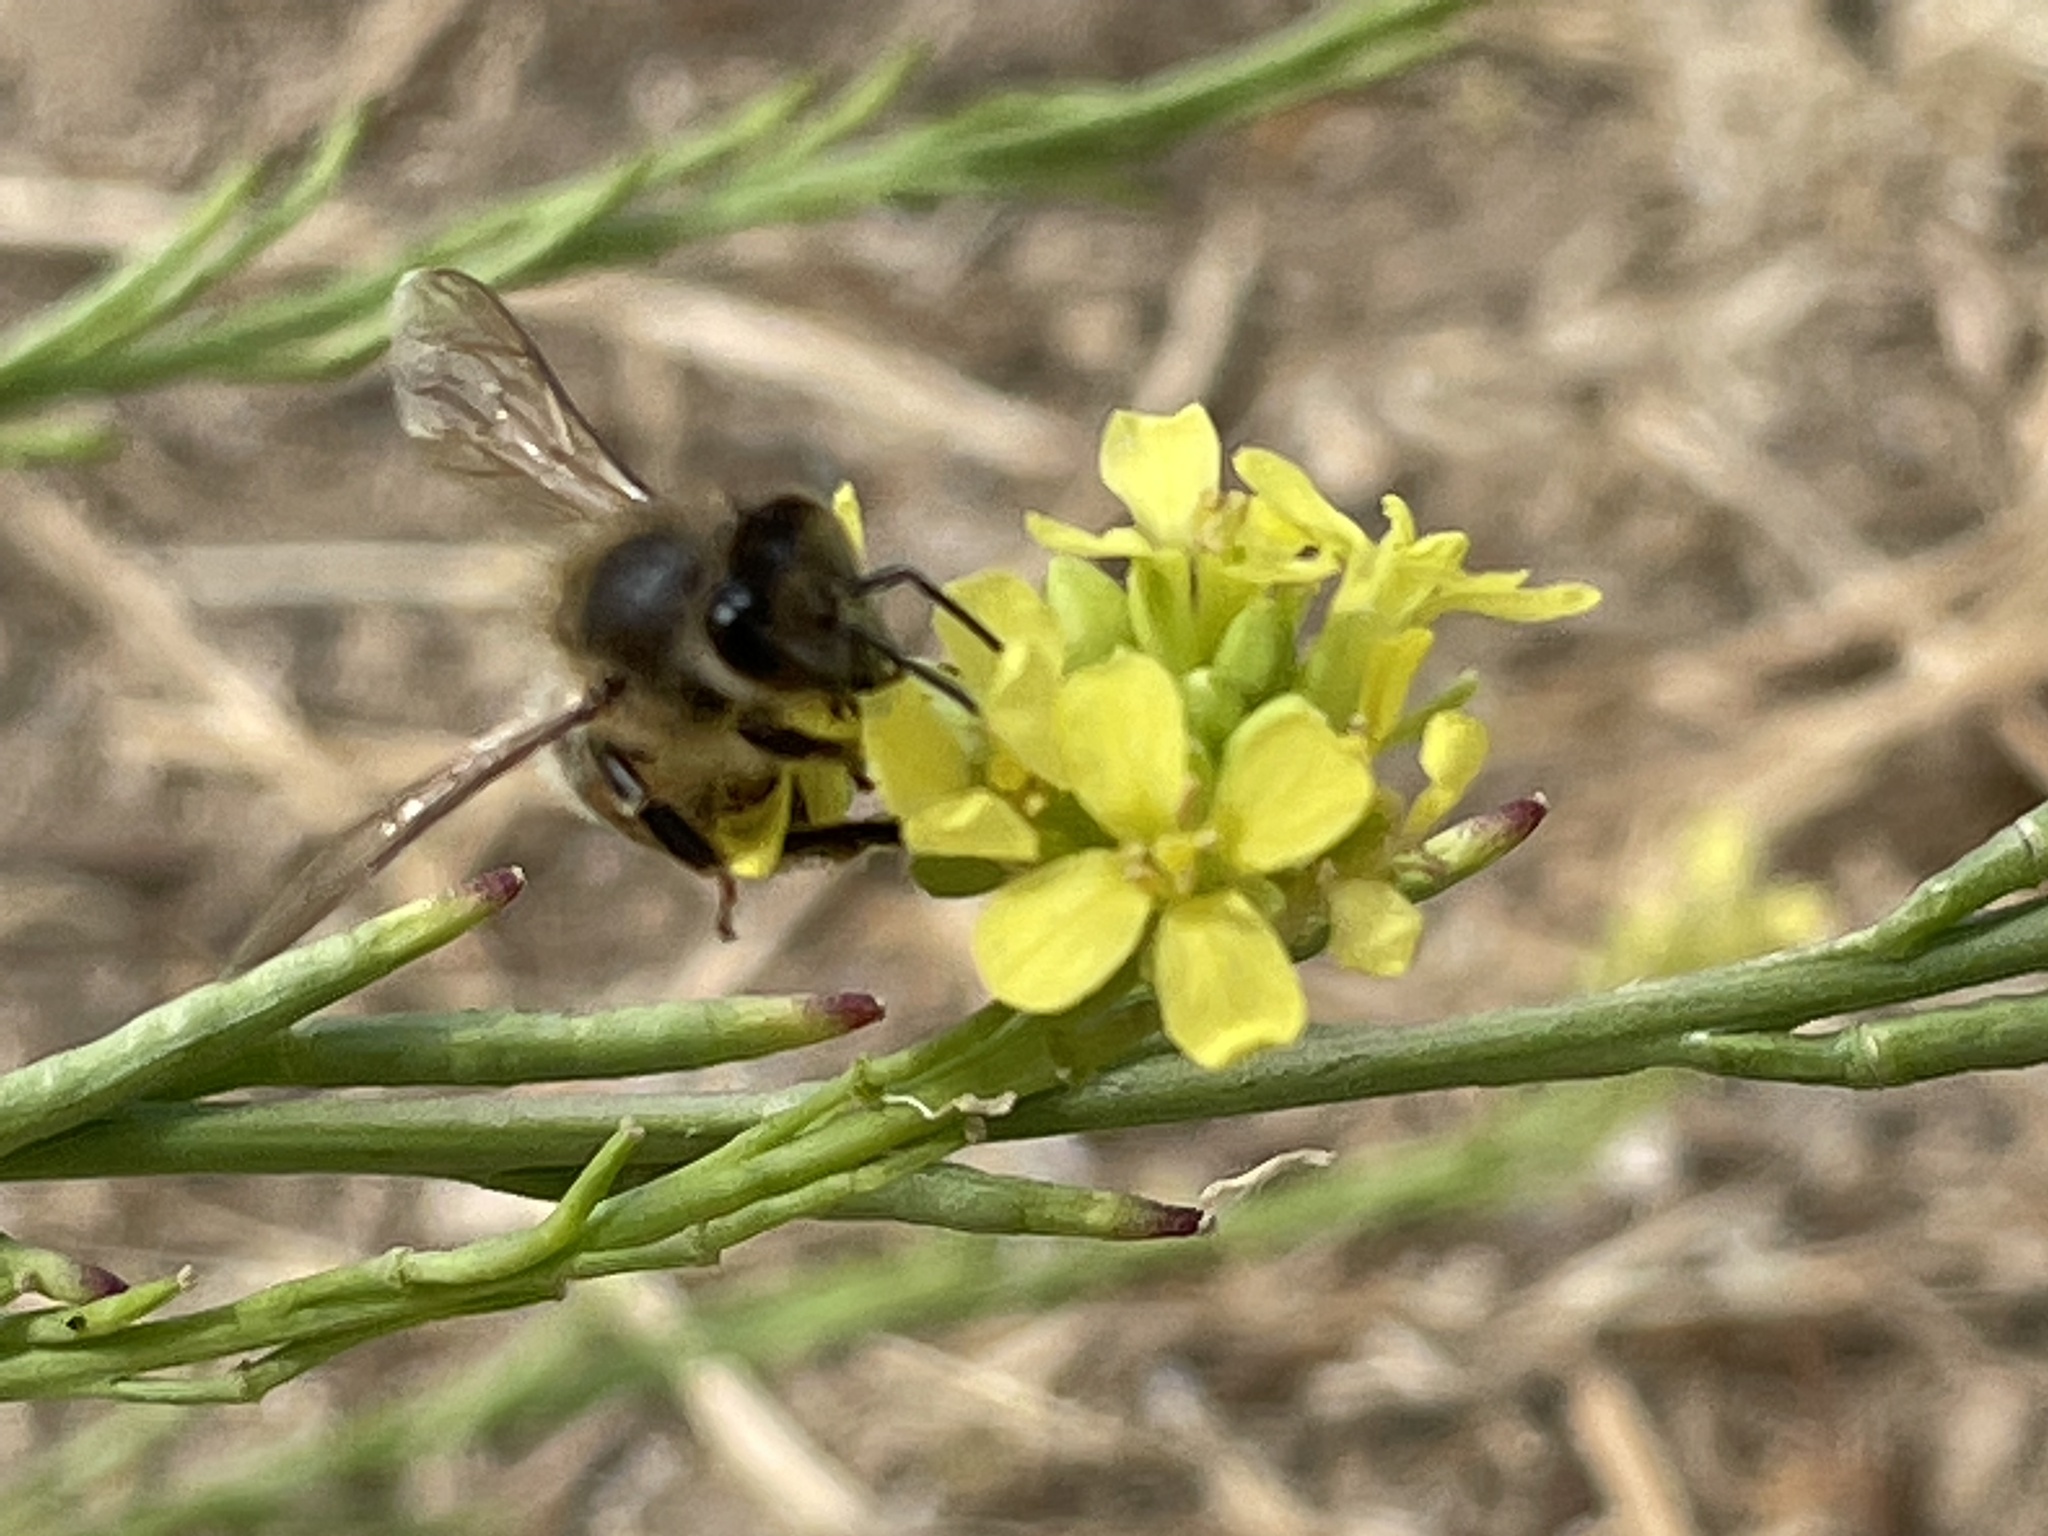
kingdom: Animalia
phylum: Arthropoda
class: Insecta
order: Hymenoptera
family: Apidae
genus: Apis
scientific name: Apis mellifera
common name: Honey bee
